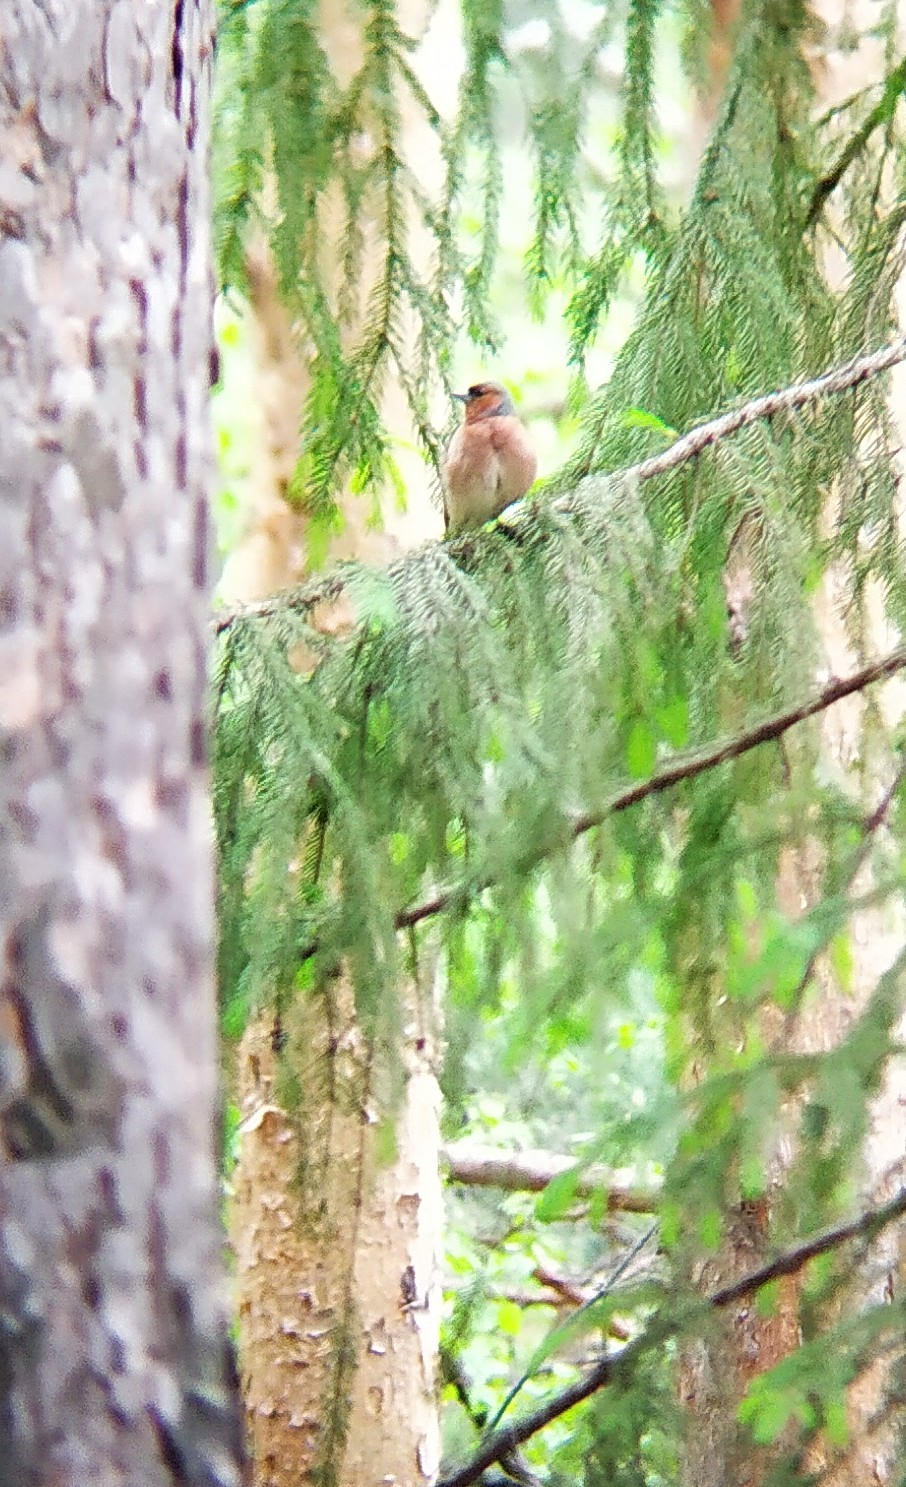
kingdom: Animalia
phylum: Chordata
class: Aves
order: Passeriformes
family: Fringillidae
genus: Fringilla
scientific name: Fringilla coelebs
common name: Common chaffinch
